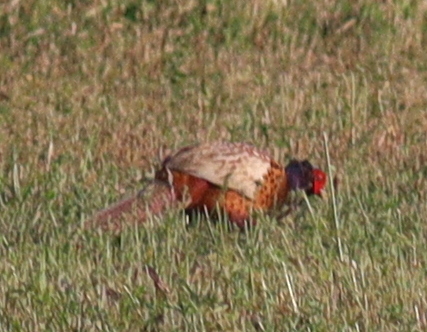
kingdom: Animalia
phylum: Chordata
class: Aves
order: Galliformes
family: Phasianidae
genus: Phasianus
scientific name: Phasianus colchicus
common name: Common pheasant
